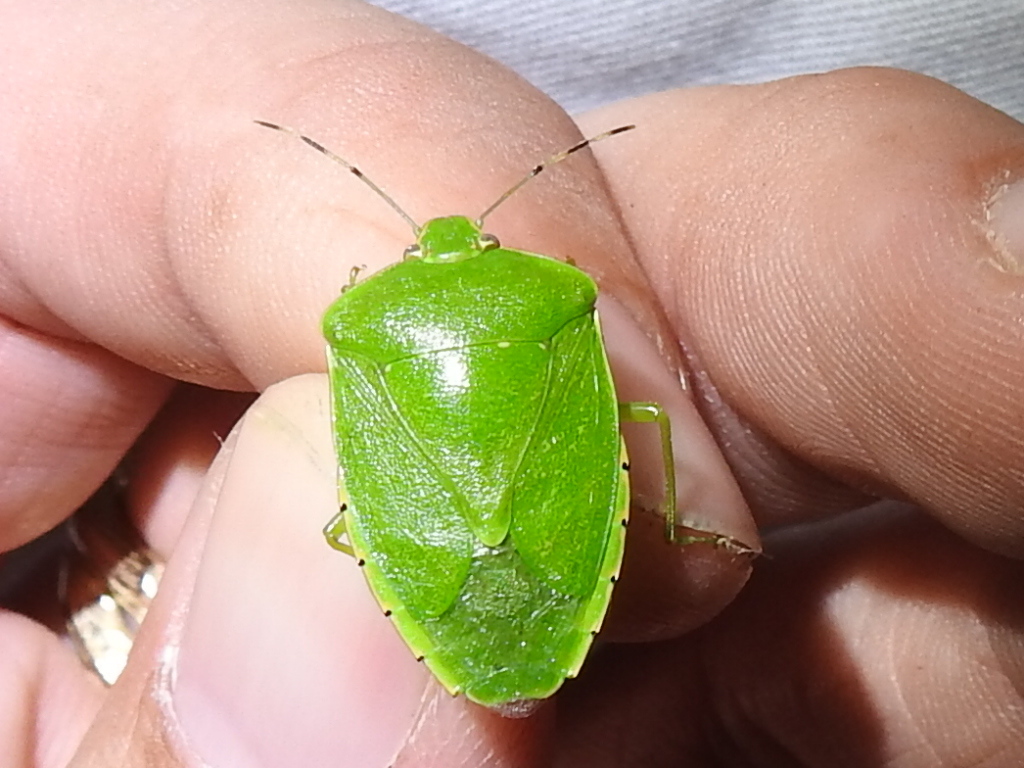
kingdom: Animalia
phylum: Arthropoda
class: Insecta
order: Hemiptera
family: Pentatomidae
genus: Chinavia
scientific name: Chinavia hilaris
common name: Green stink bug
